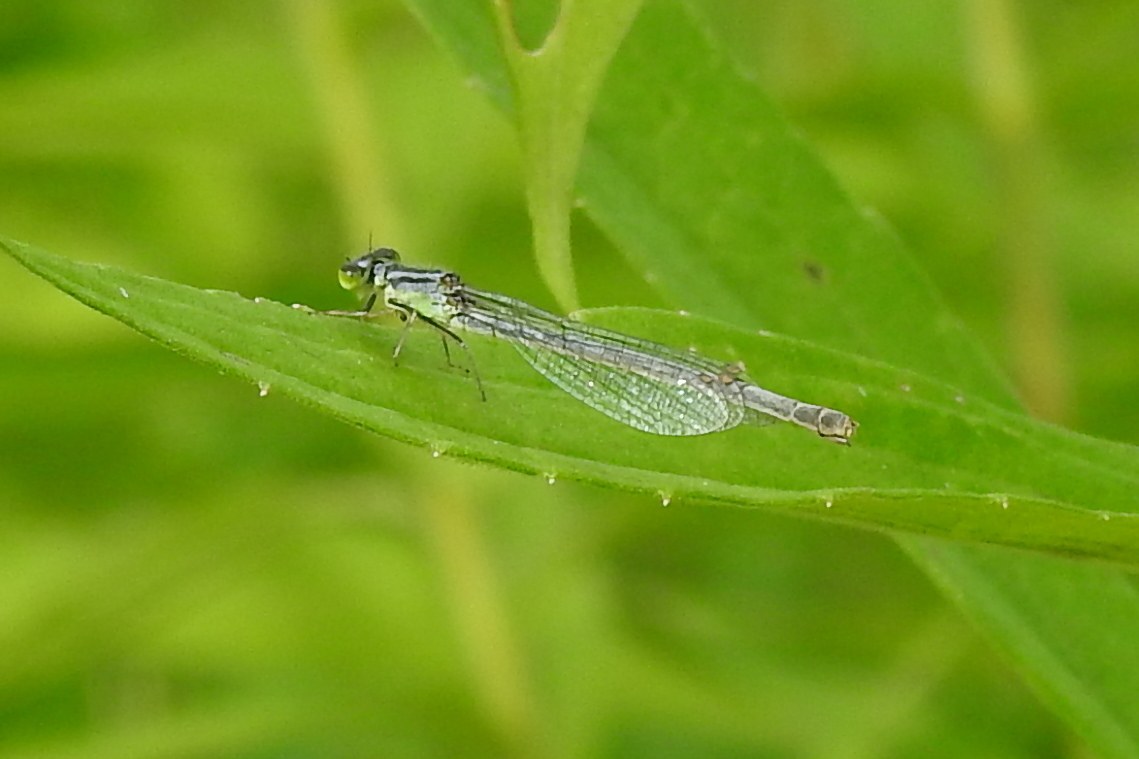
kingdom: Animalia
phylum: Arthropoda
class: Insecta
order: Odonata
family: Coenagrionidae
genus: Ischnura
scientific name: Ischnura verticalis
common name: Eastern forktail
